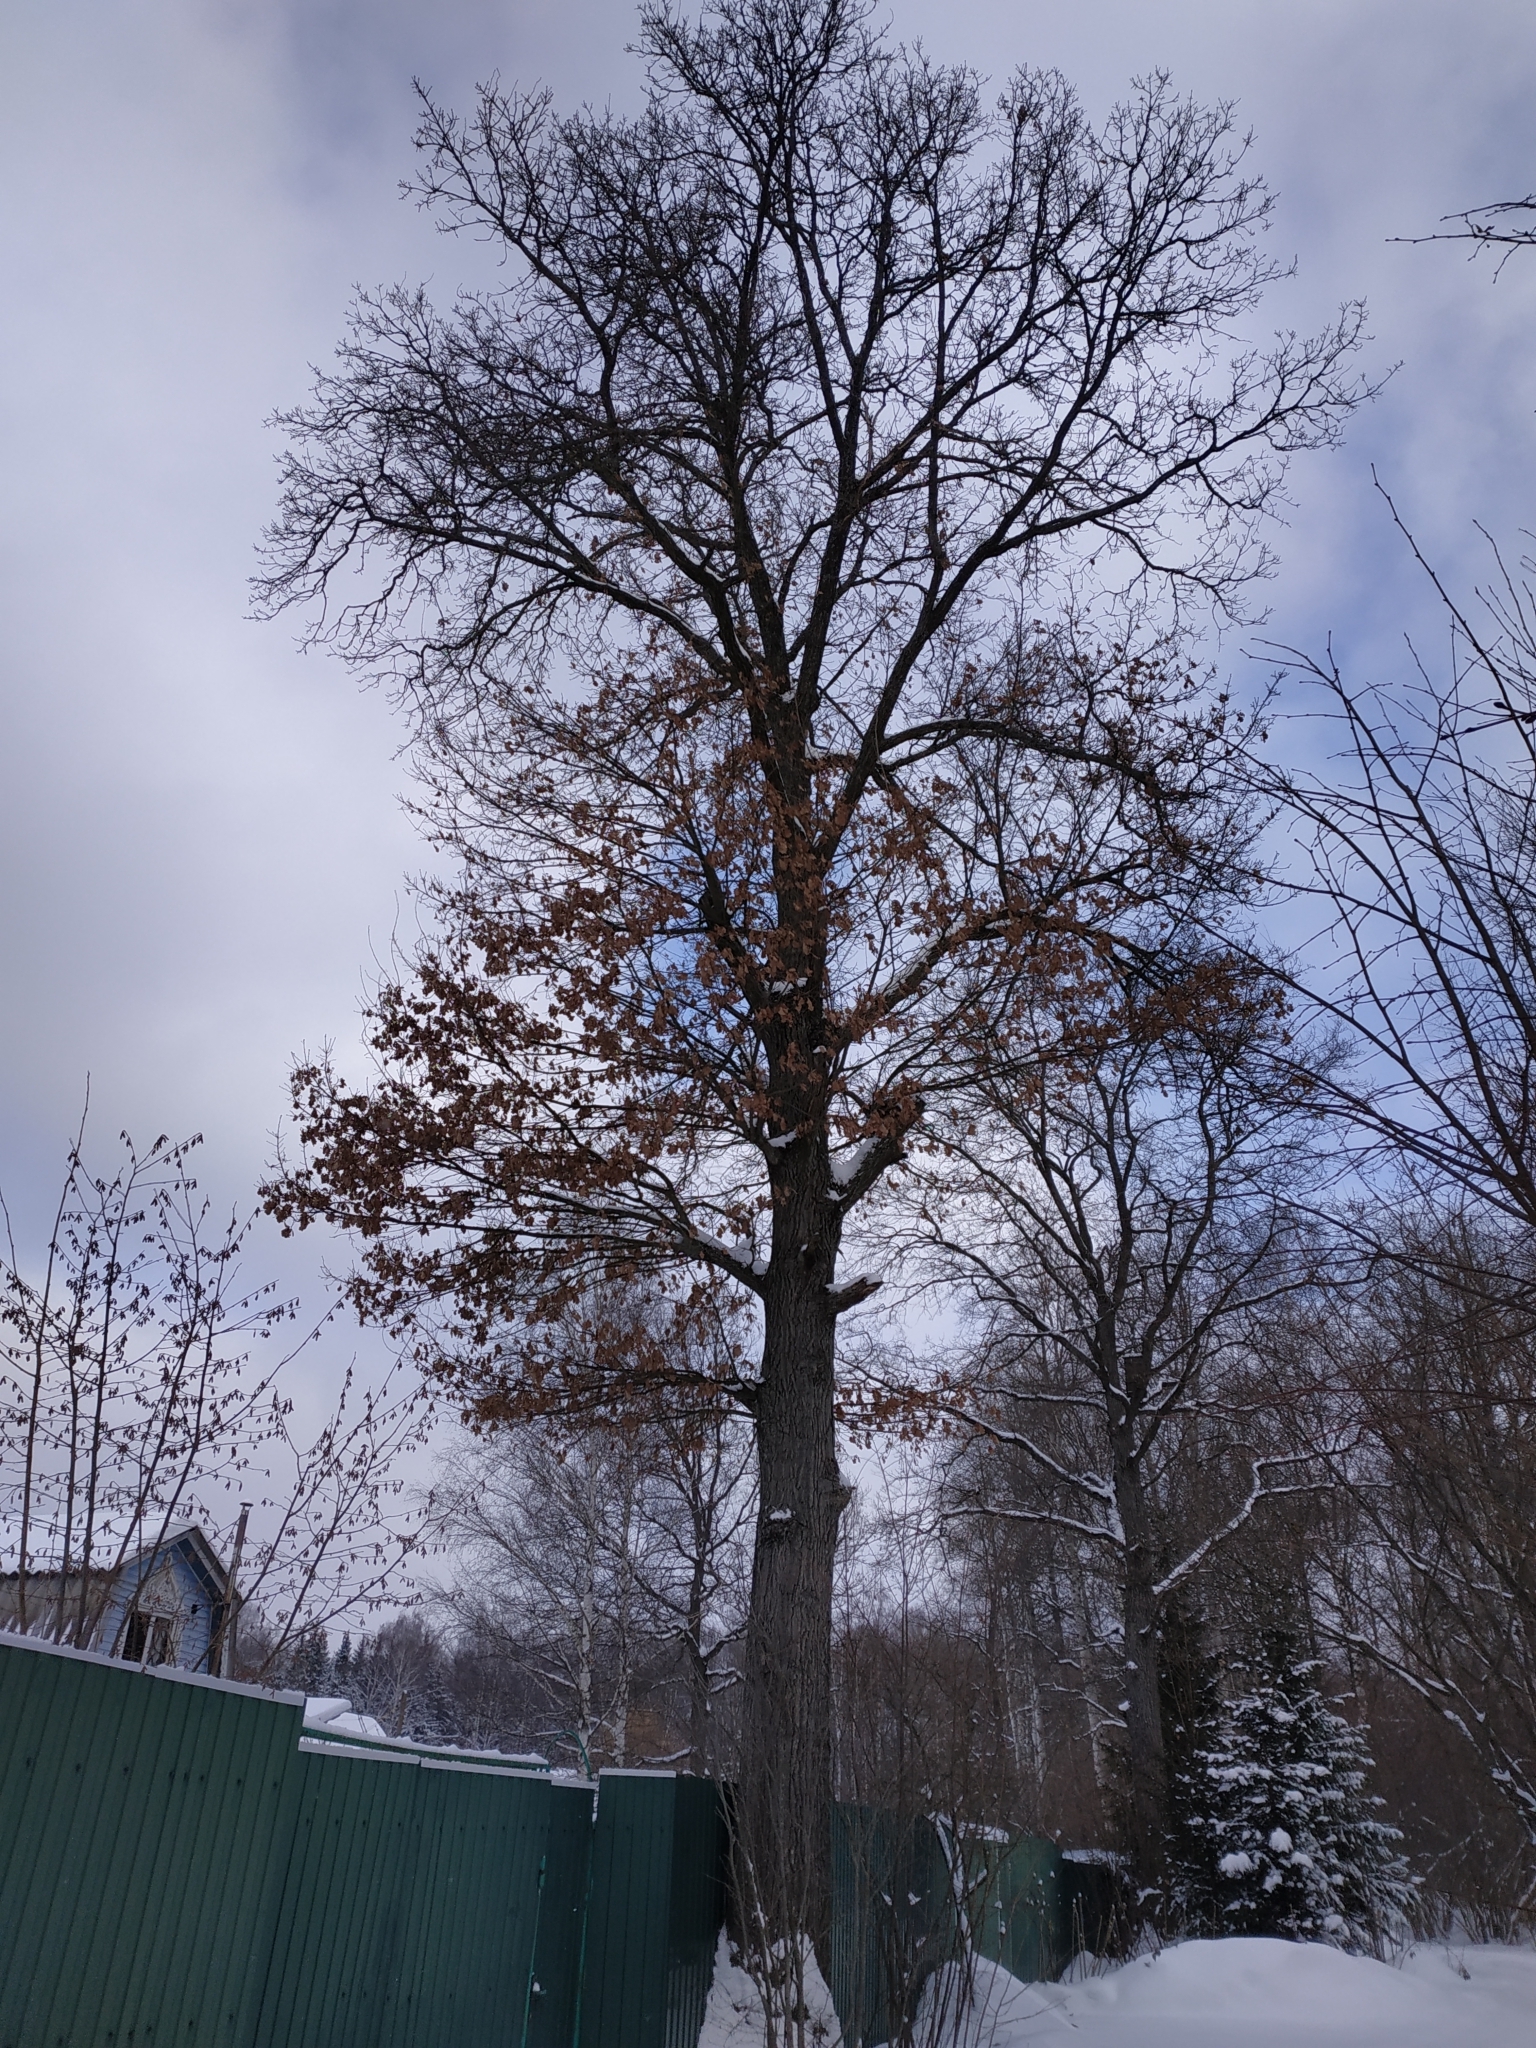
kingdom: Plantae
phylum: Tracheophyta
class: Magnoliopsida
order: Fagales
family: Fagaceae
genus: Quercus
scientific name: Quercus robur
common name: Pedunculate oak
